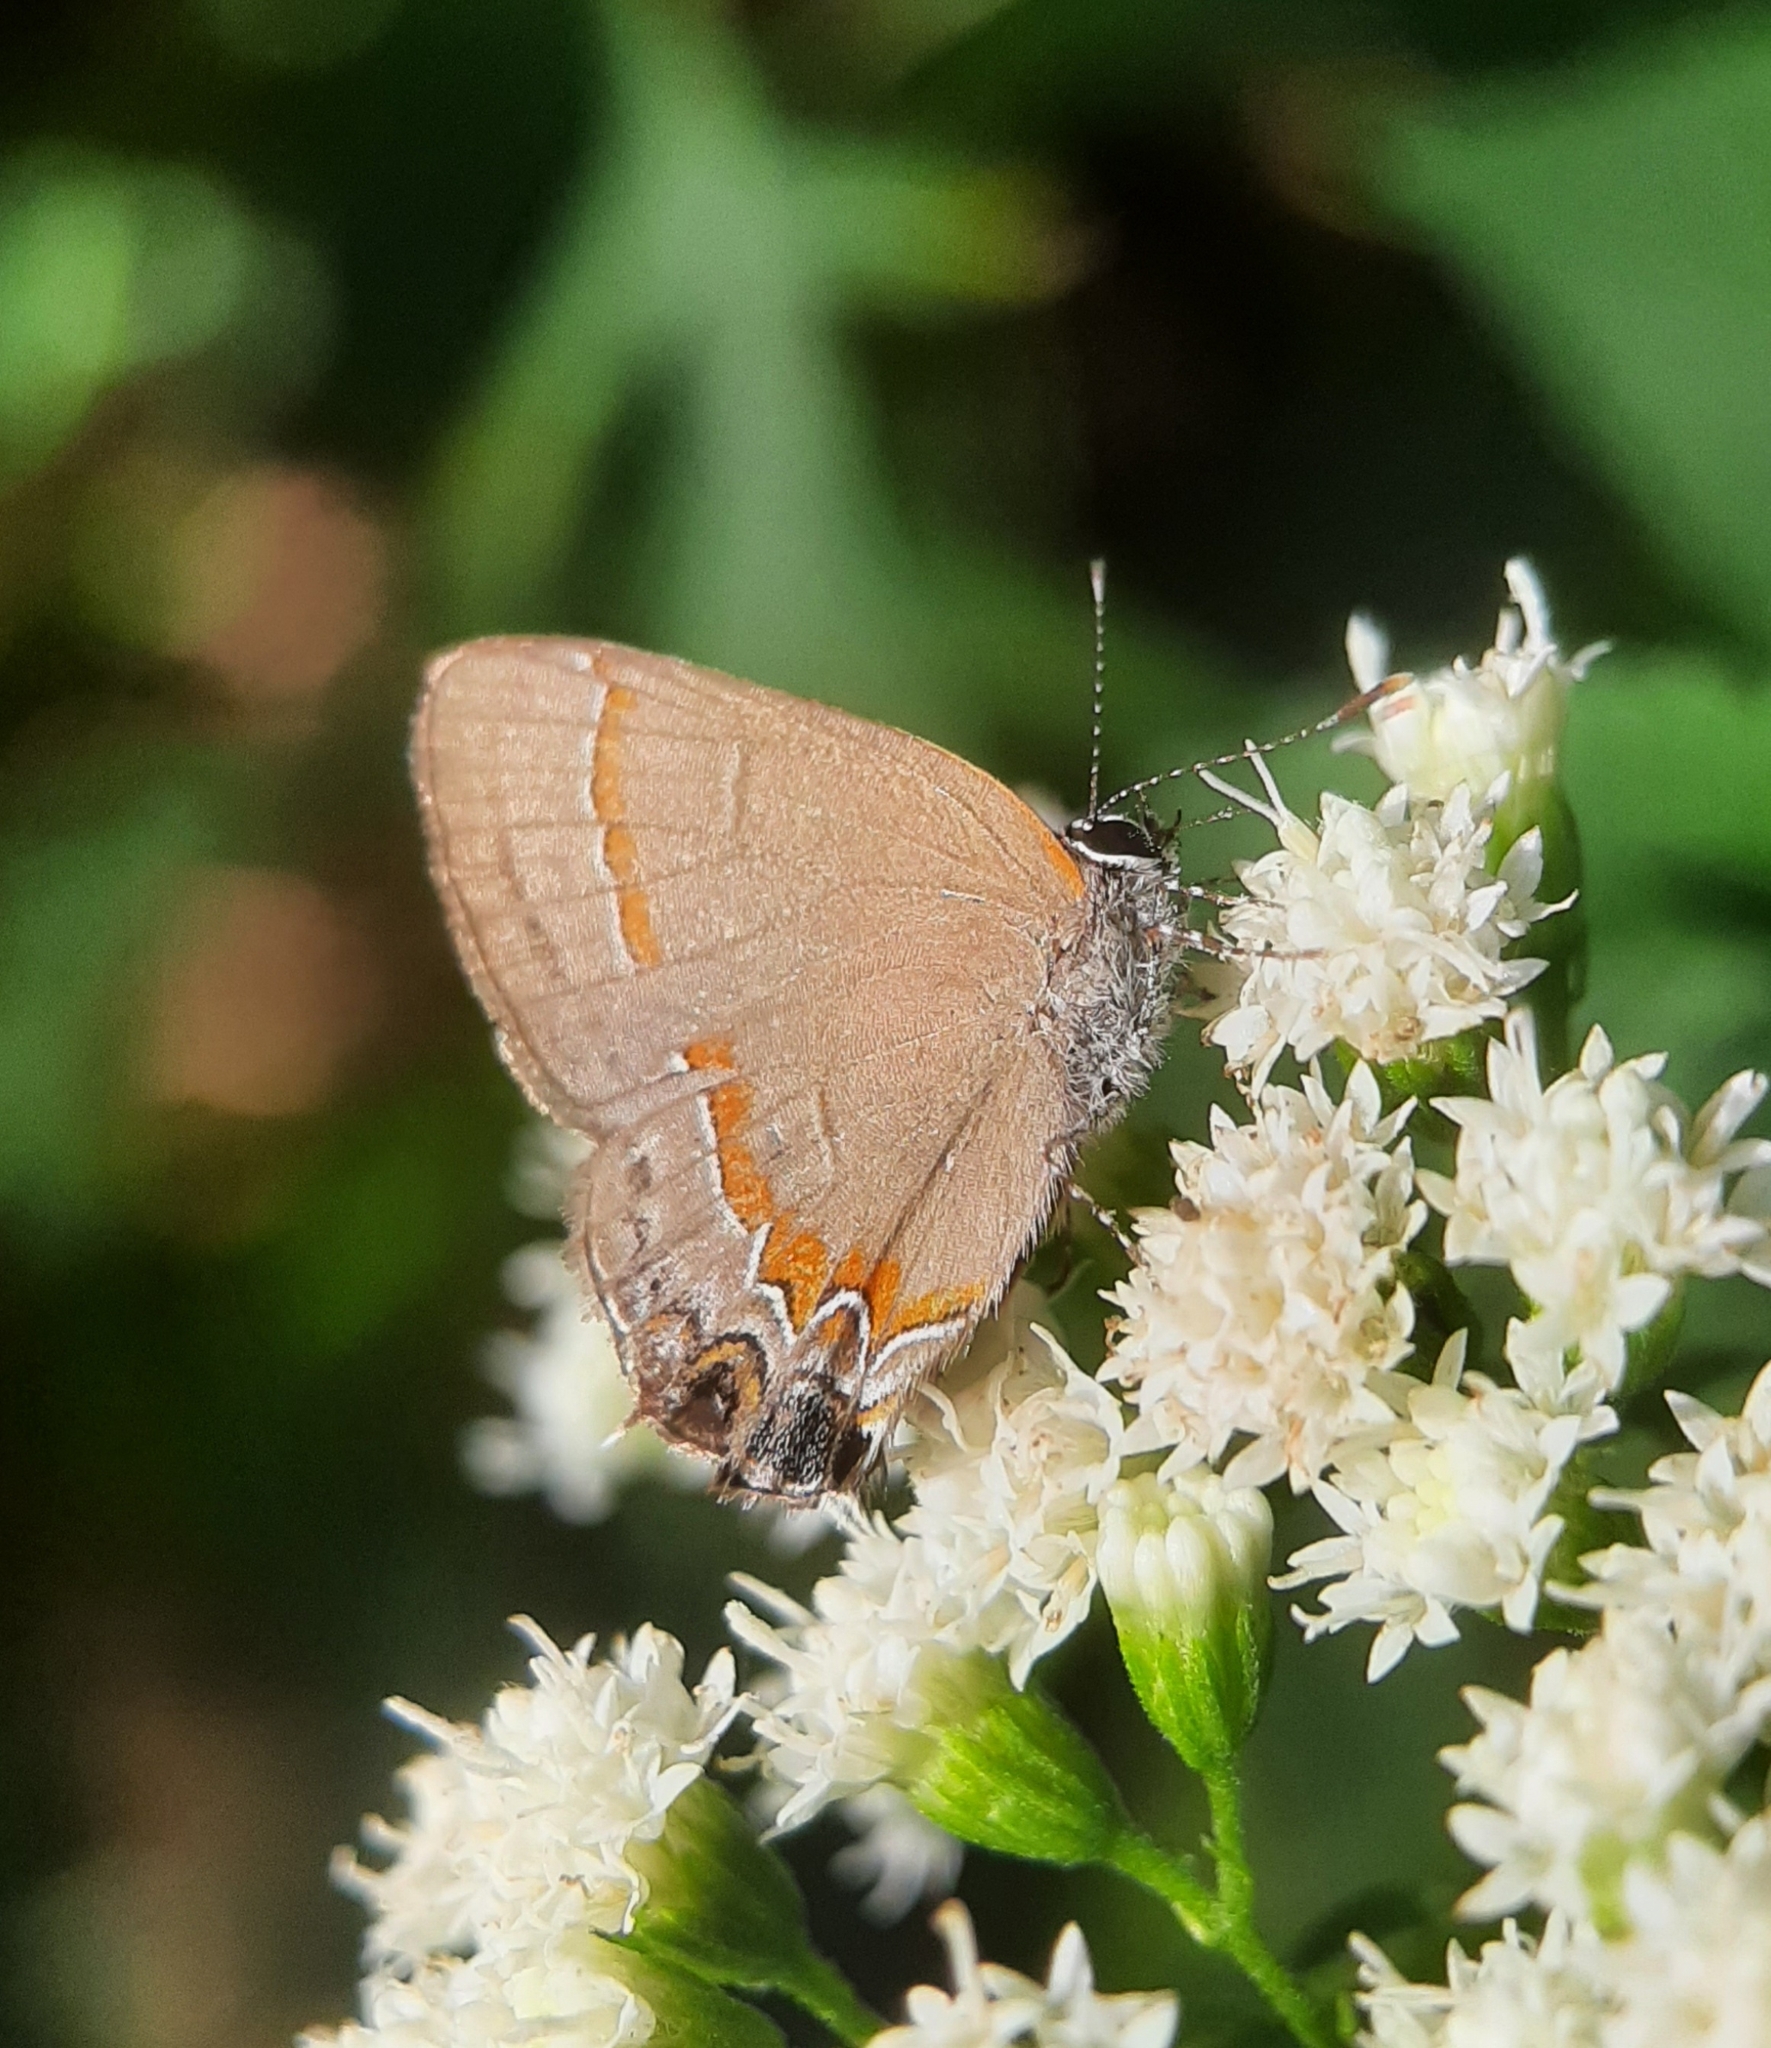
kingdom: Animalia
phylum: Arthropoda
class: Insecta
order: Lepidoptera
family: Lycaenidae
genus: Calycopis
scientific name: Calycopis cecrops
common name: Red-banded hairstreak
